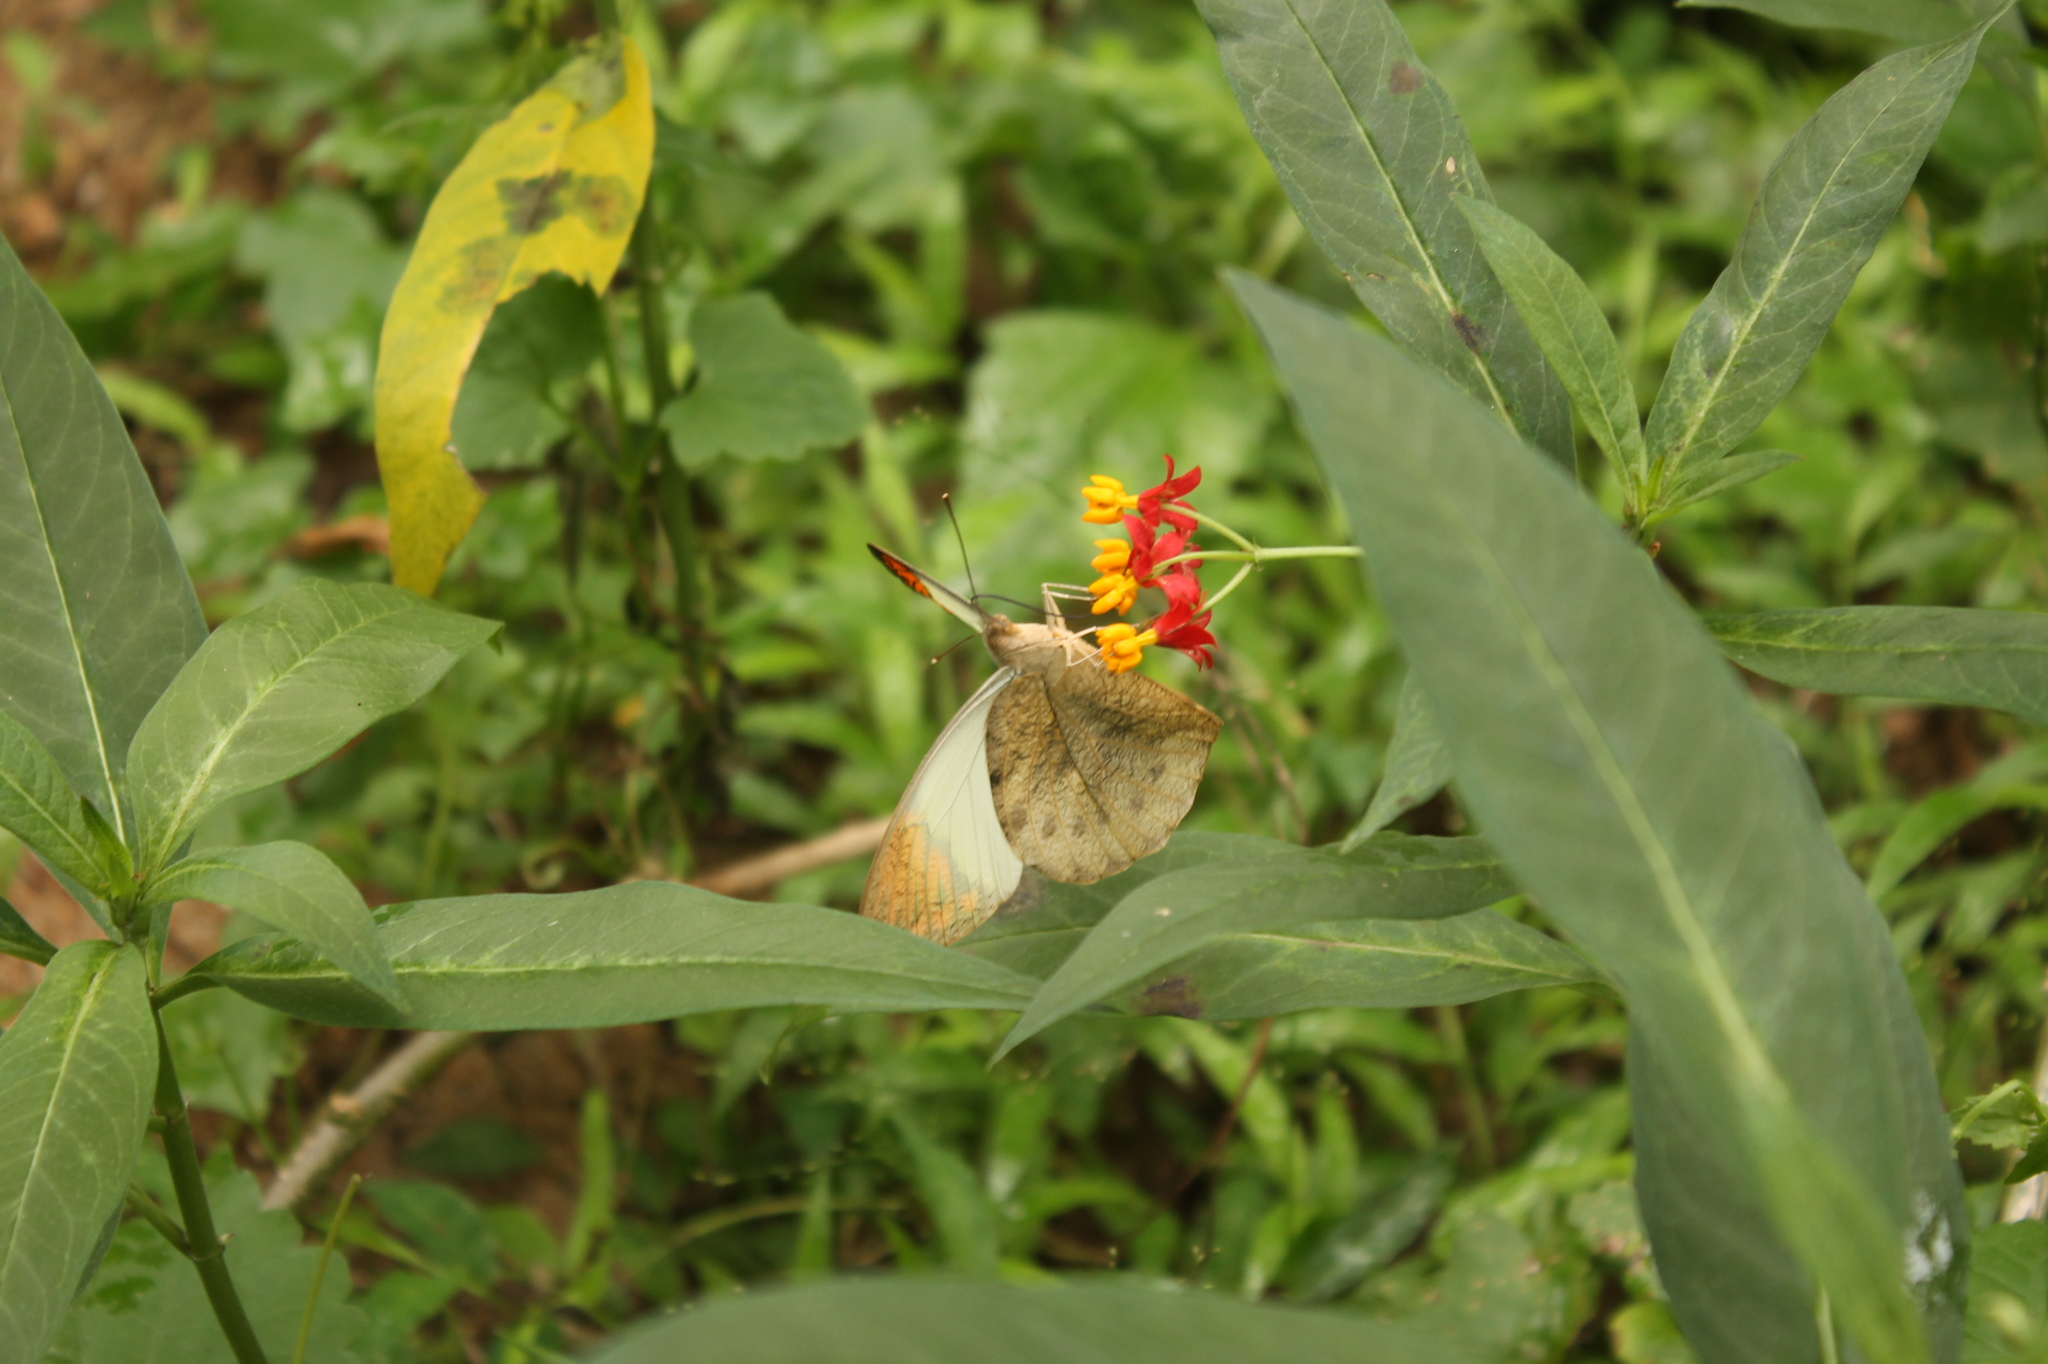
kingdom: Animalia
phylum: Arthropoda
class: Insecta
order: Lepidoptera
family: Pieridae
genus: Hebomoia
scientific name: Hebomoia glaucippe
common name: Great orange tip
